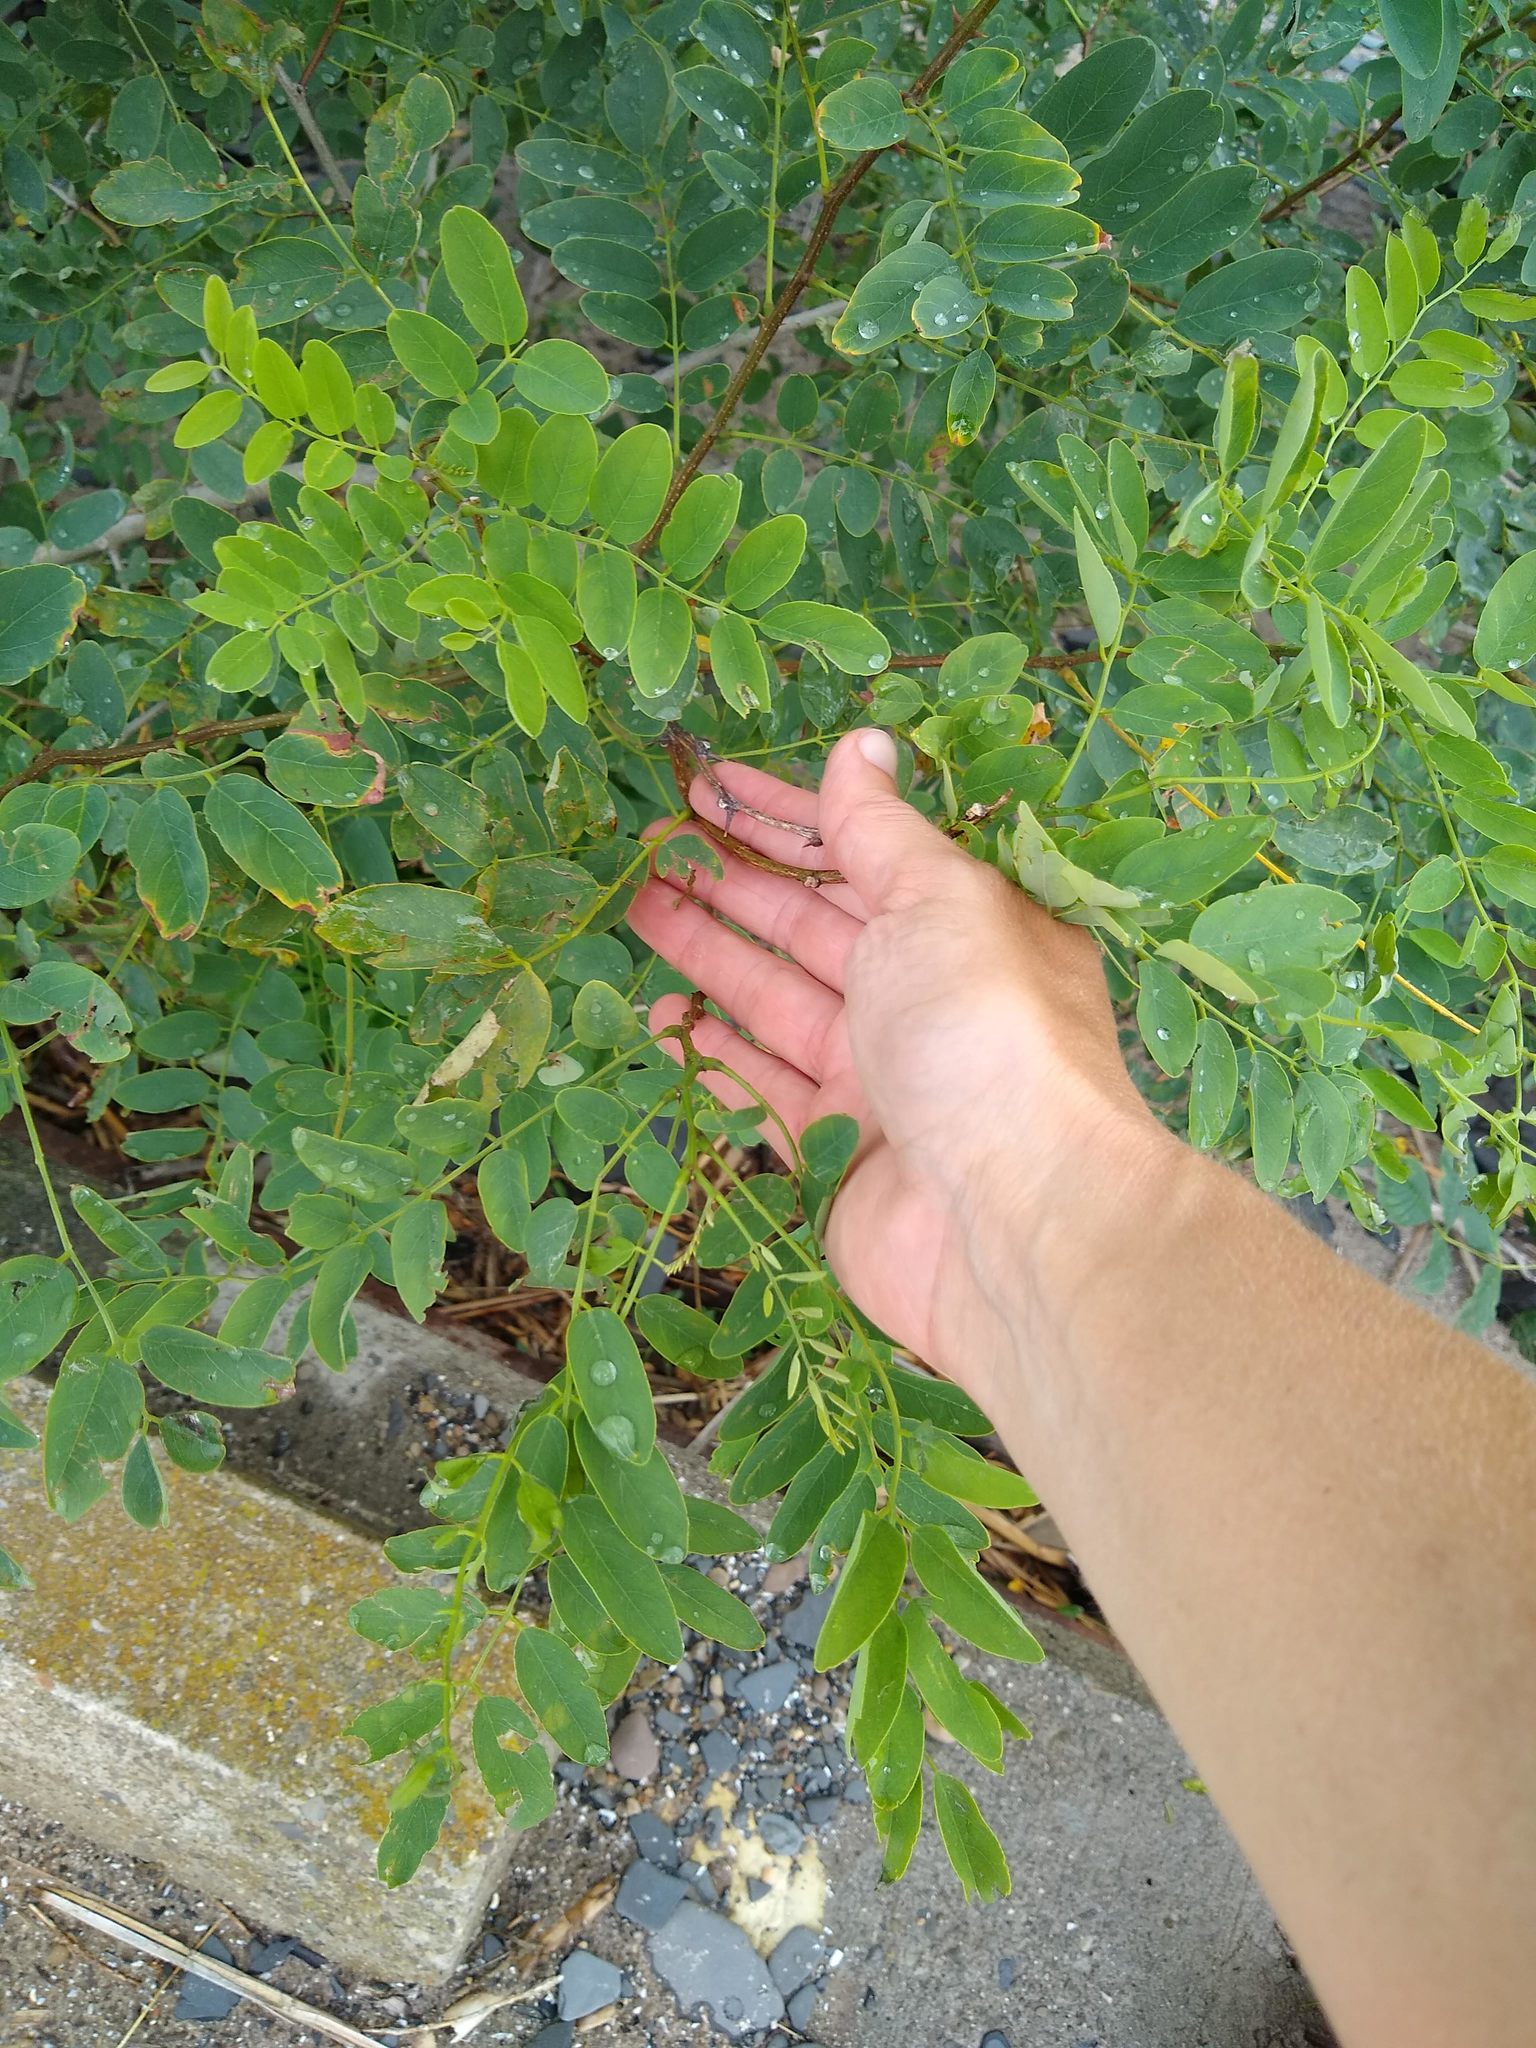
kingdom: Plantae
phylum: Tracheophyta
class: Magnoliopsida
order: Fabales
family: Fabaceae
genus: Robinia
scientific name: Robinia pseudoacacia
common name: Black locust
